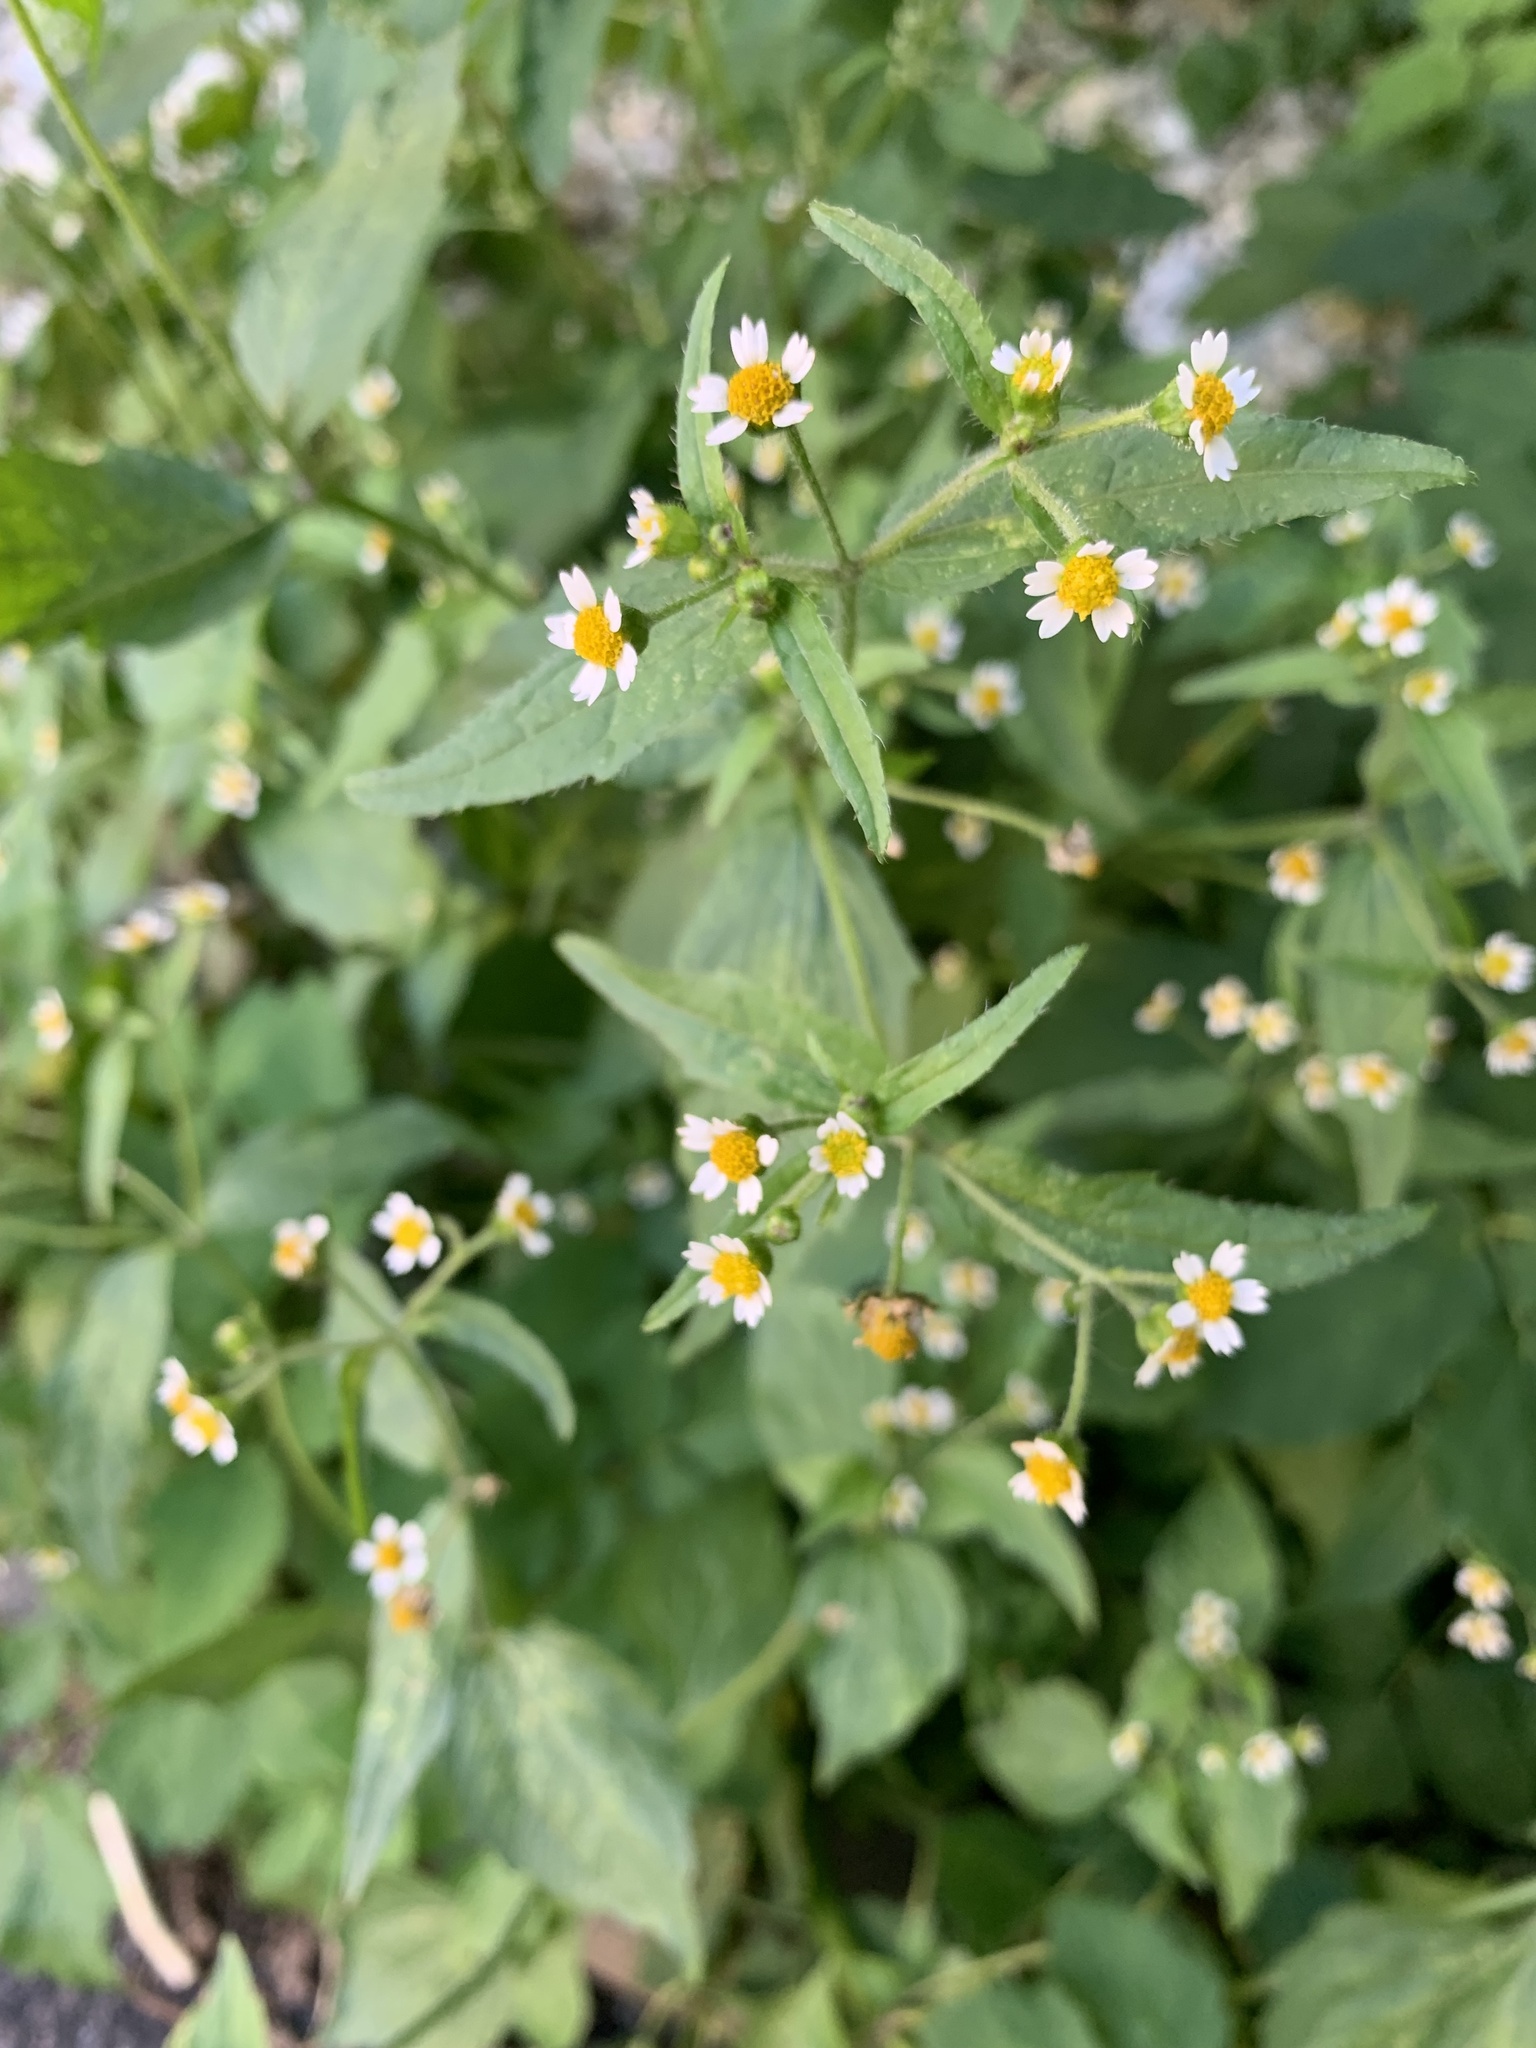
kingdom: Plantae
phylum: Tracheophyta
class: Magnoliopsida
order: Asterales
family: Asteraceae
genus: Galinsoga
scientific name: Galinsoga quadriradiata
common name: Shaggy soldier
